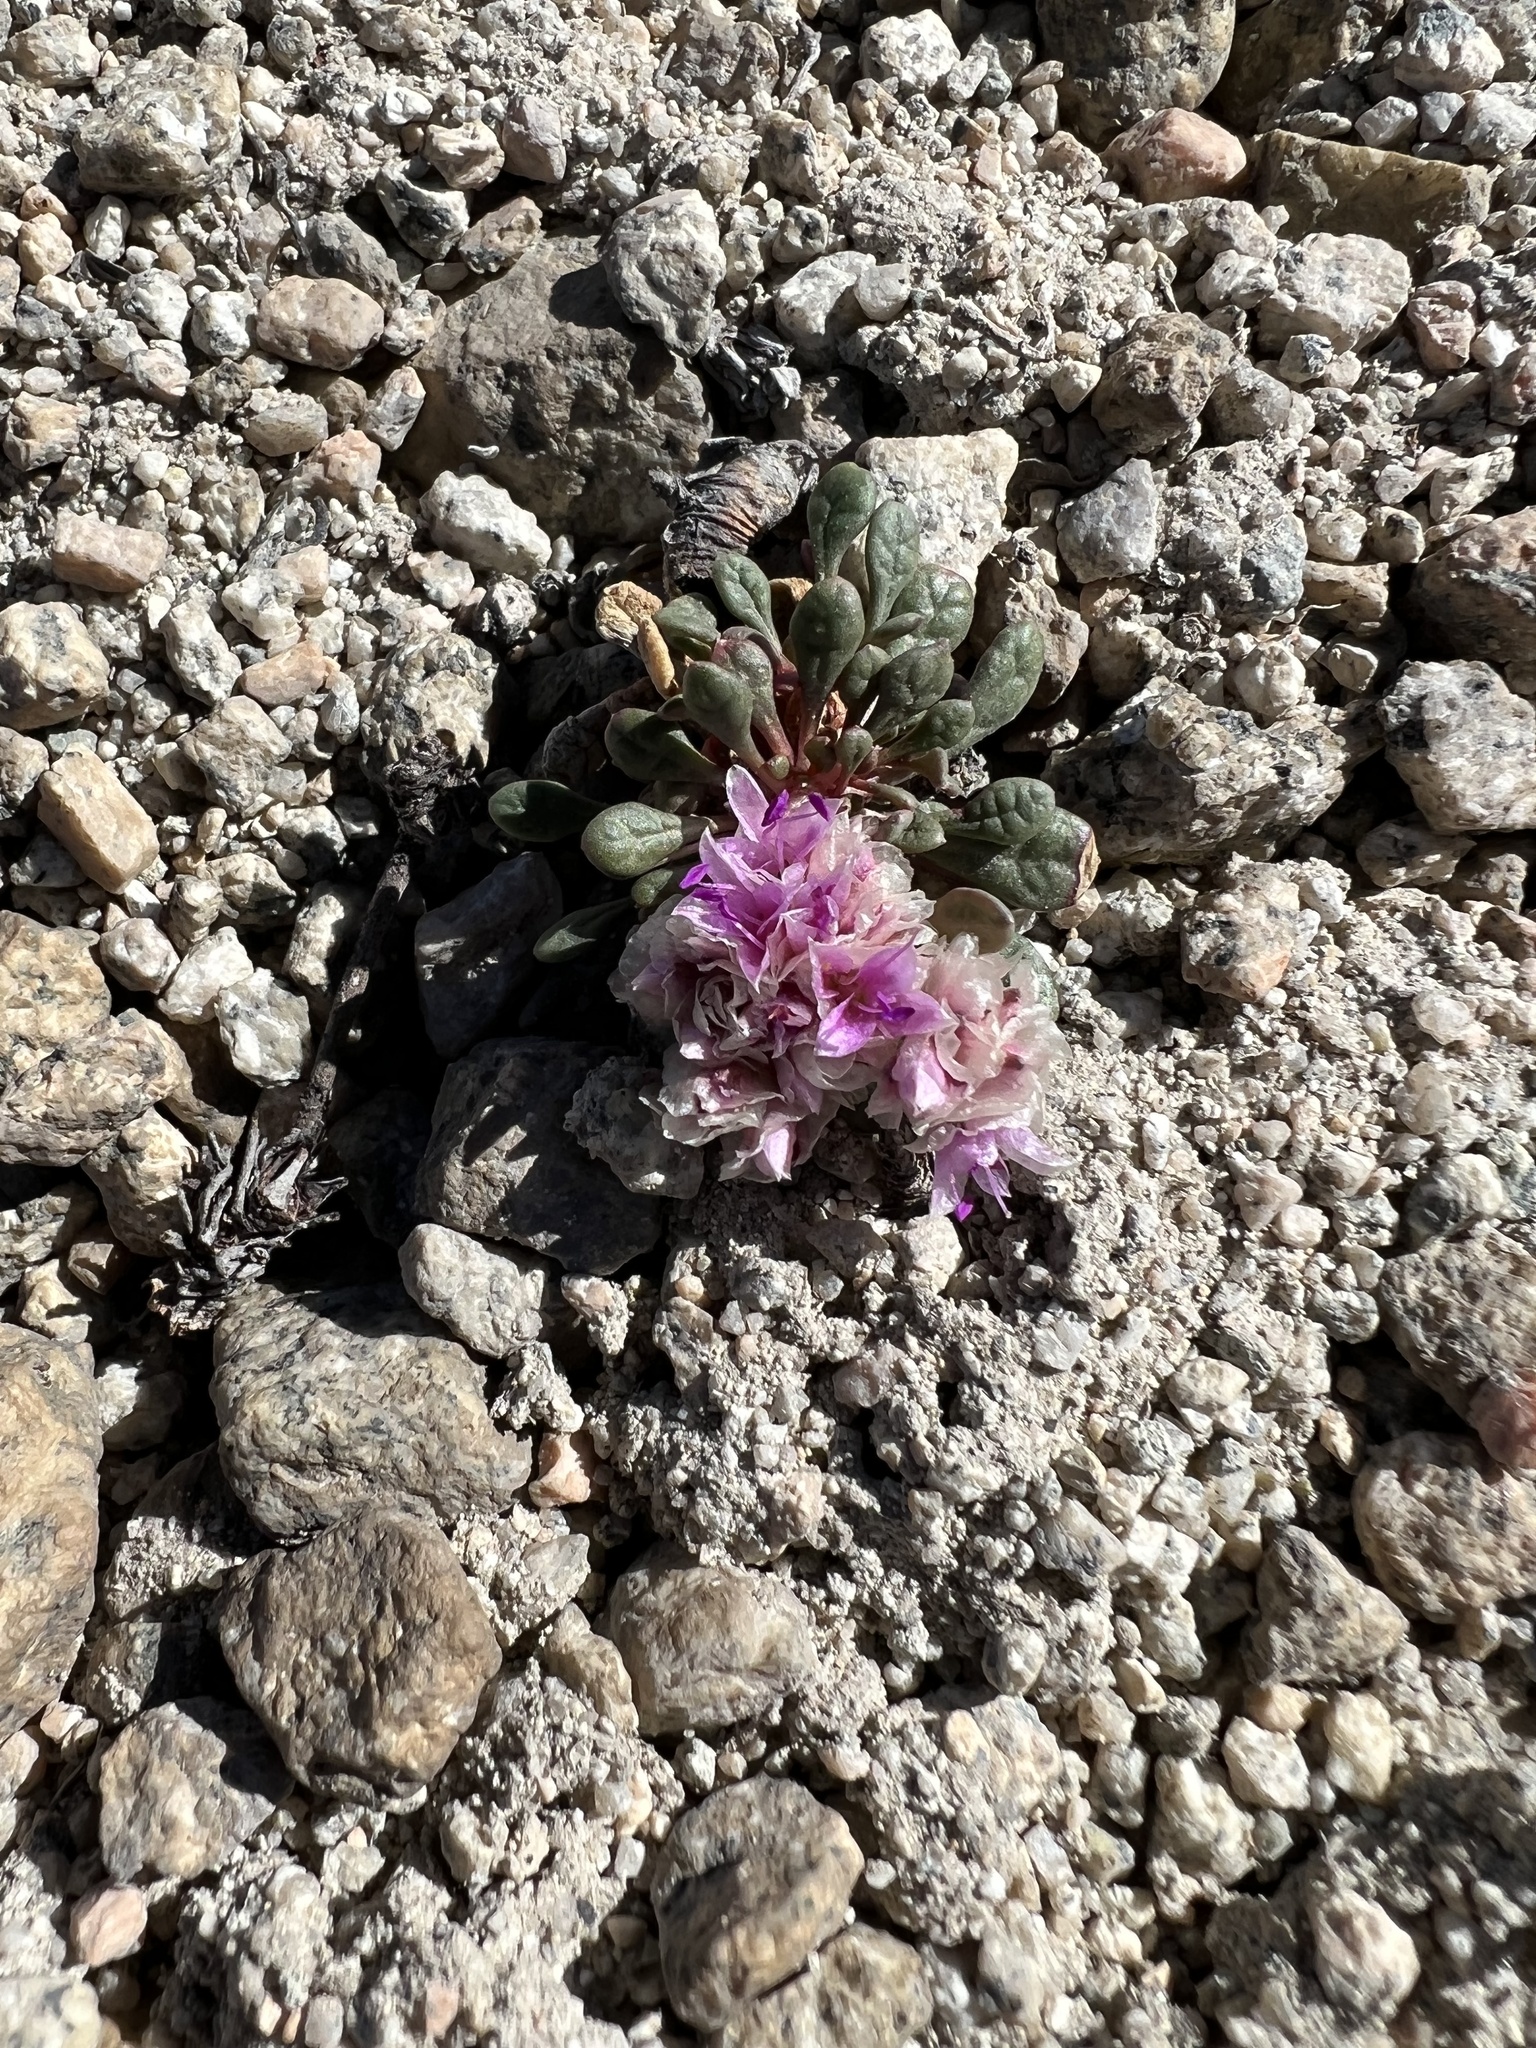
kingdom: Plantae
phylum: Tracheophyta
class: Magnoliopsida
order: Caryophyllales
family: Montiaceae
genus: Calyptridium
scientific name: Calyptridium umbellatum
